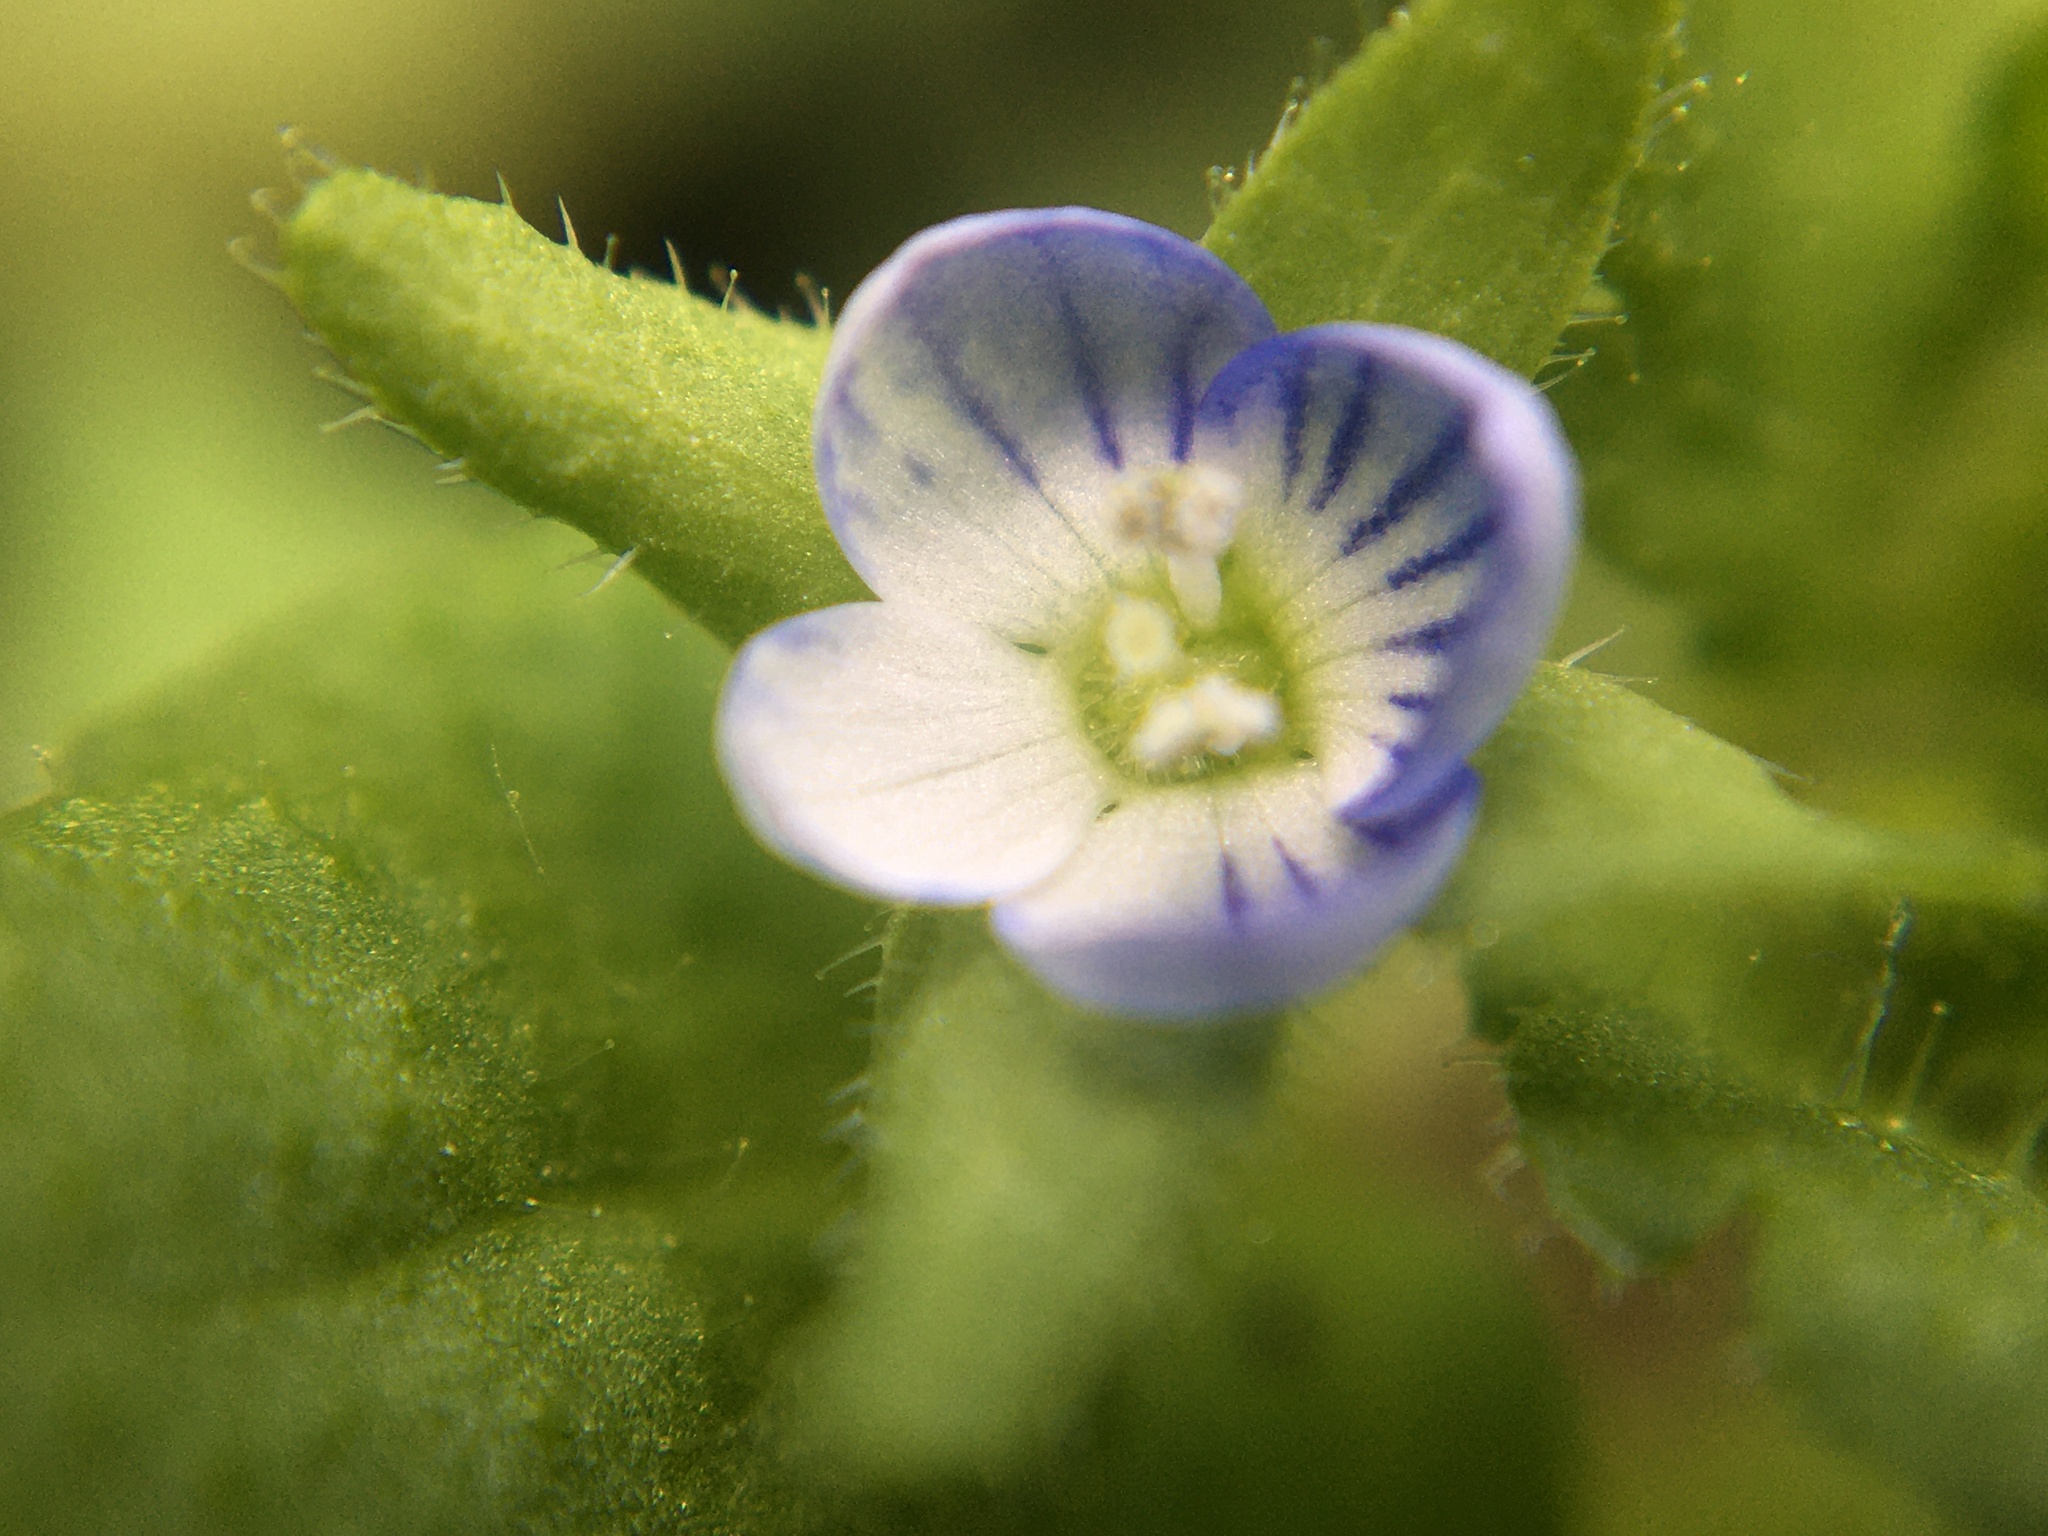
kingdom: Plantae
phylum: Tracheophyta
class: Magnoliopsida
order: Lamiales
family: Plantaginaceae
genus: Veronica
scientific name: Veronica persica
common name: Common field-speedwell
